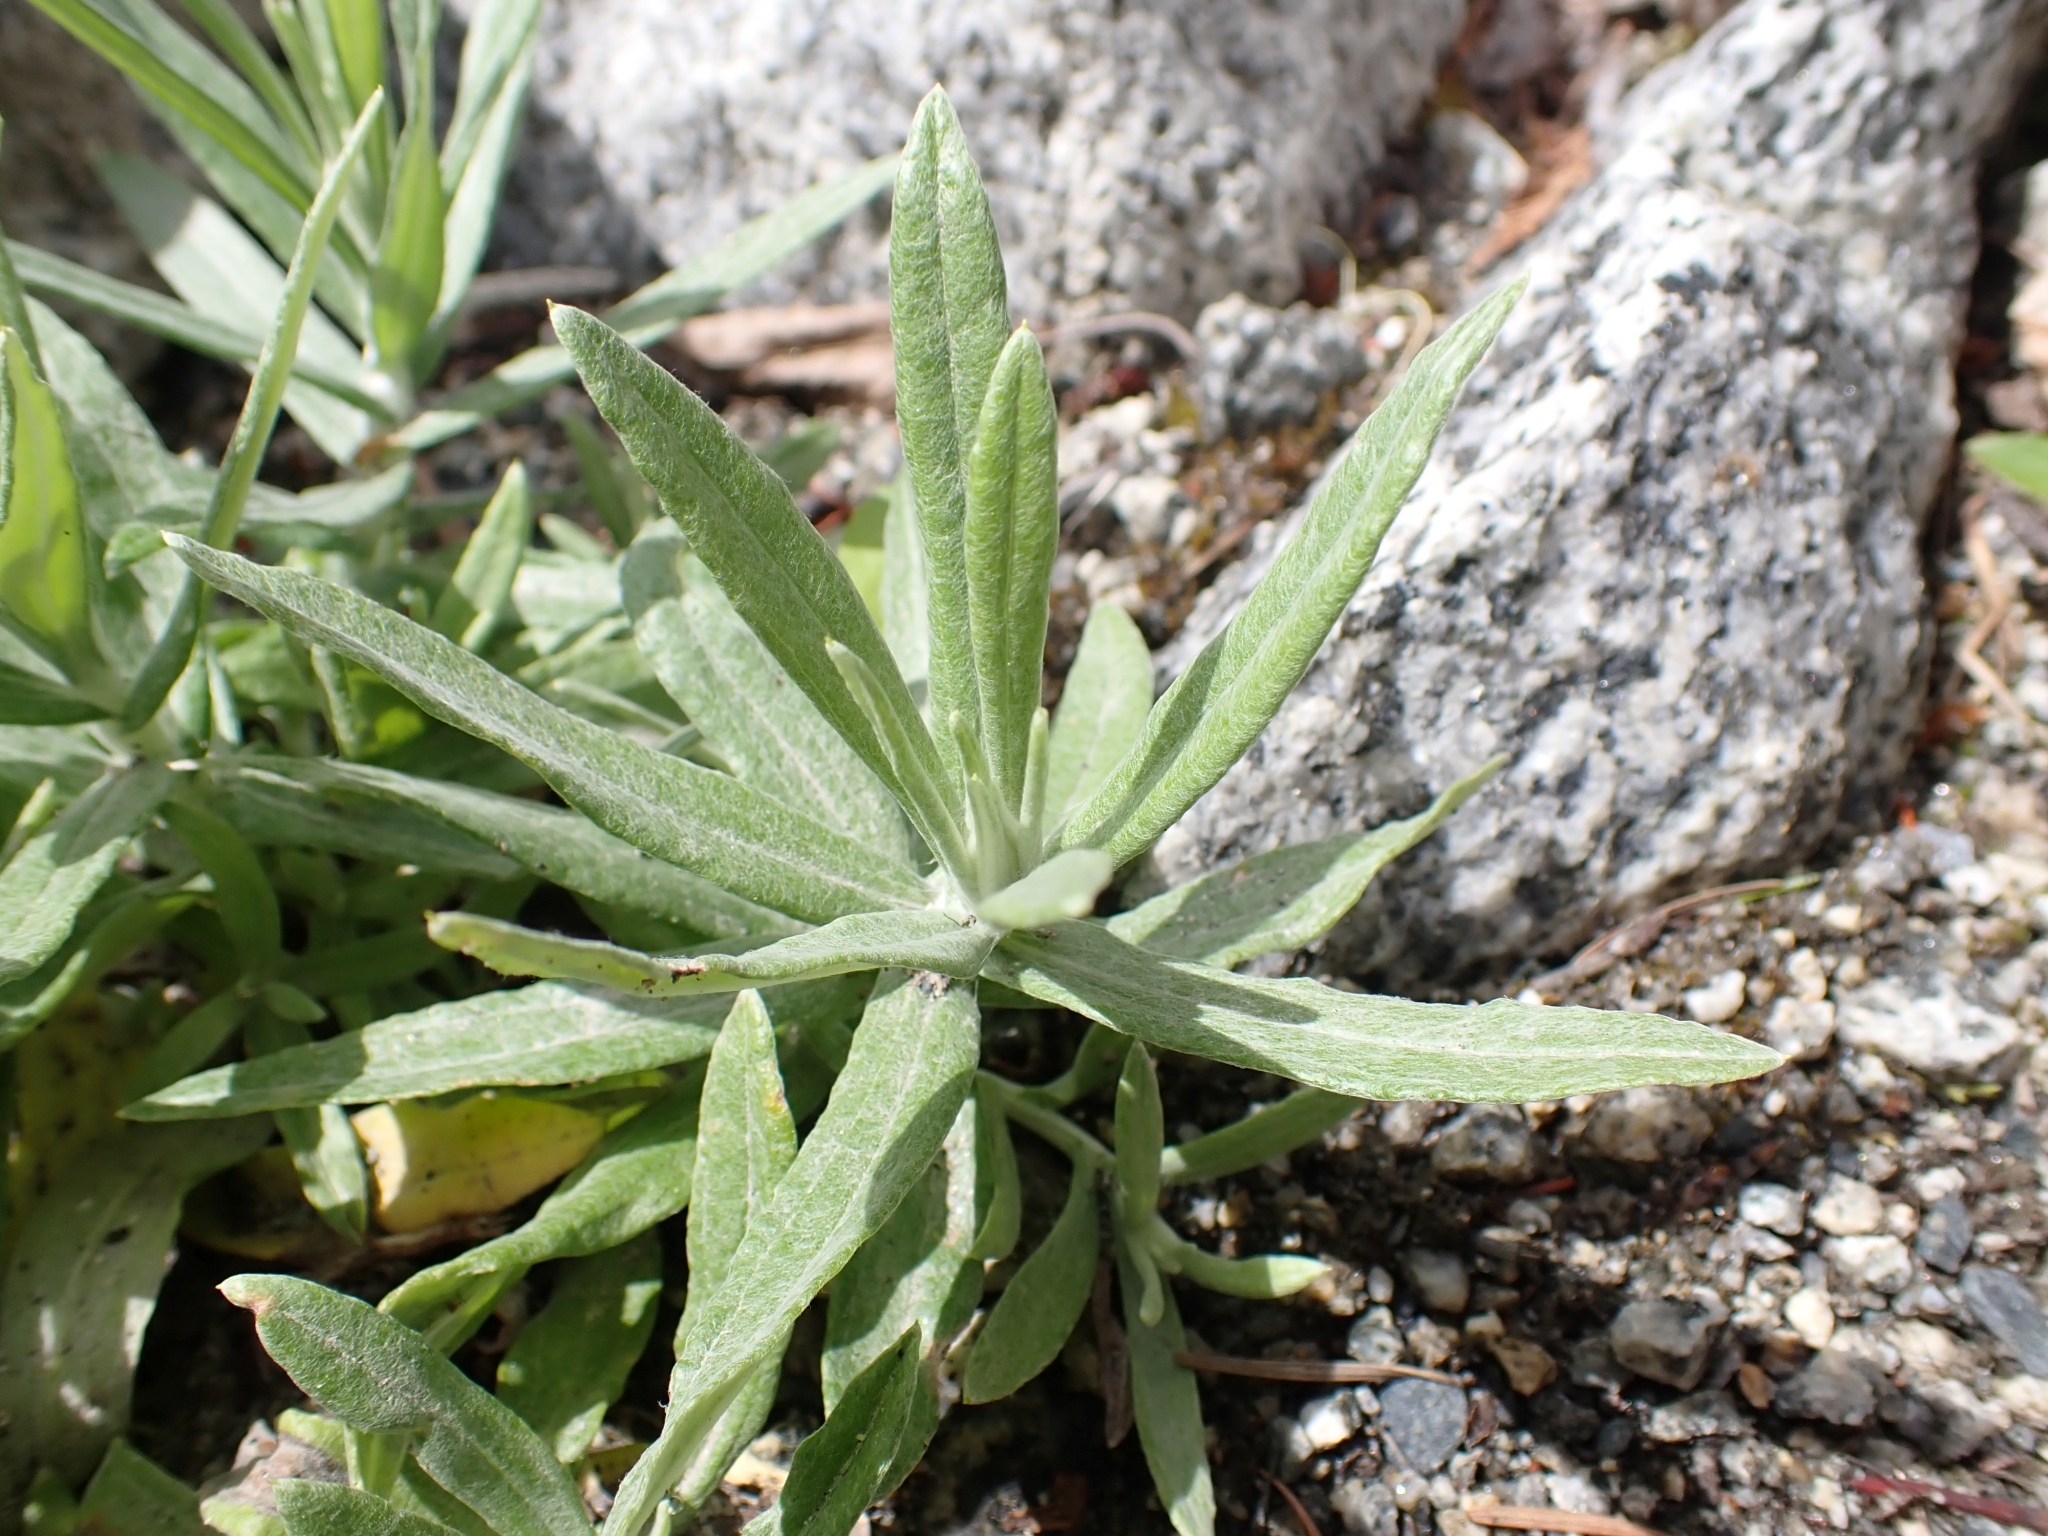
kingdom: Plantae
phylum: Tracheophyta
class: Magnoliopsida
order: Asterales
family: Asteraceae
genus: Anaphalis
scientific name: Anaphalis margaritacea
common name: Pearly everlasting
